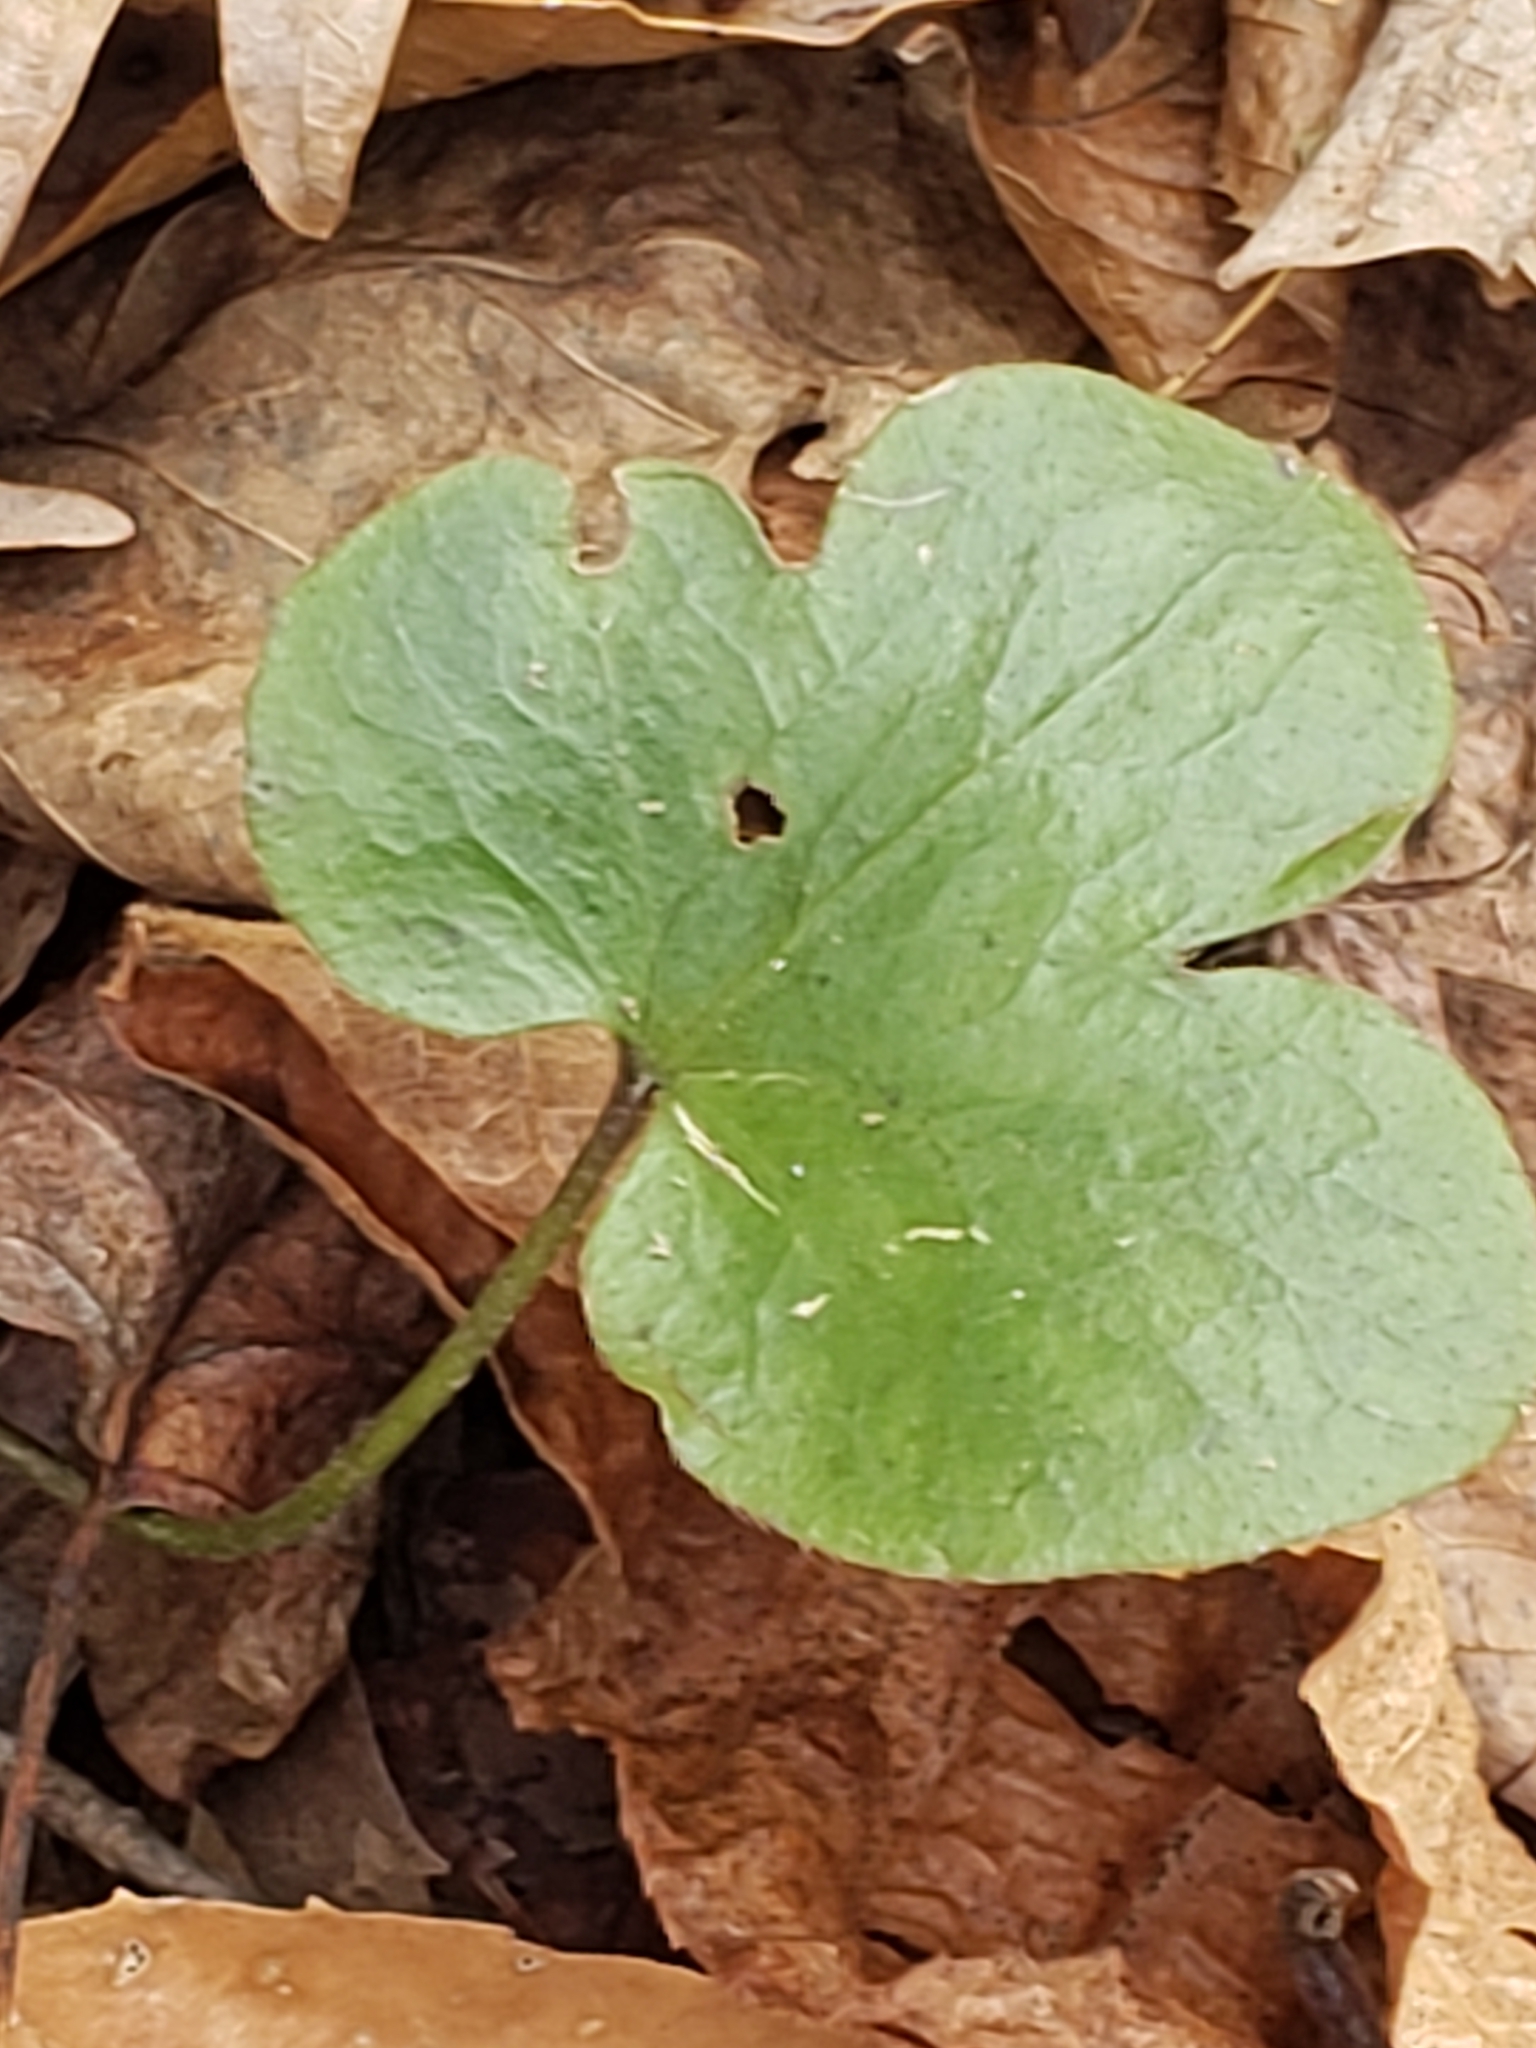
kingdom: Plantae
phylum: Tracheophyta
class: Magnoliopsida
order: Ranunculales
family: Ranunculaceae
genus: Hepatica
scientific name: Hepatica americana
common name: American hepatica
